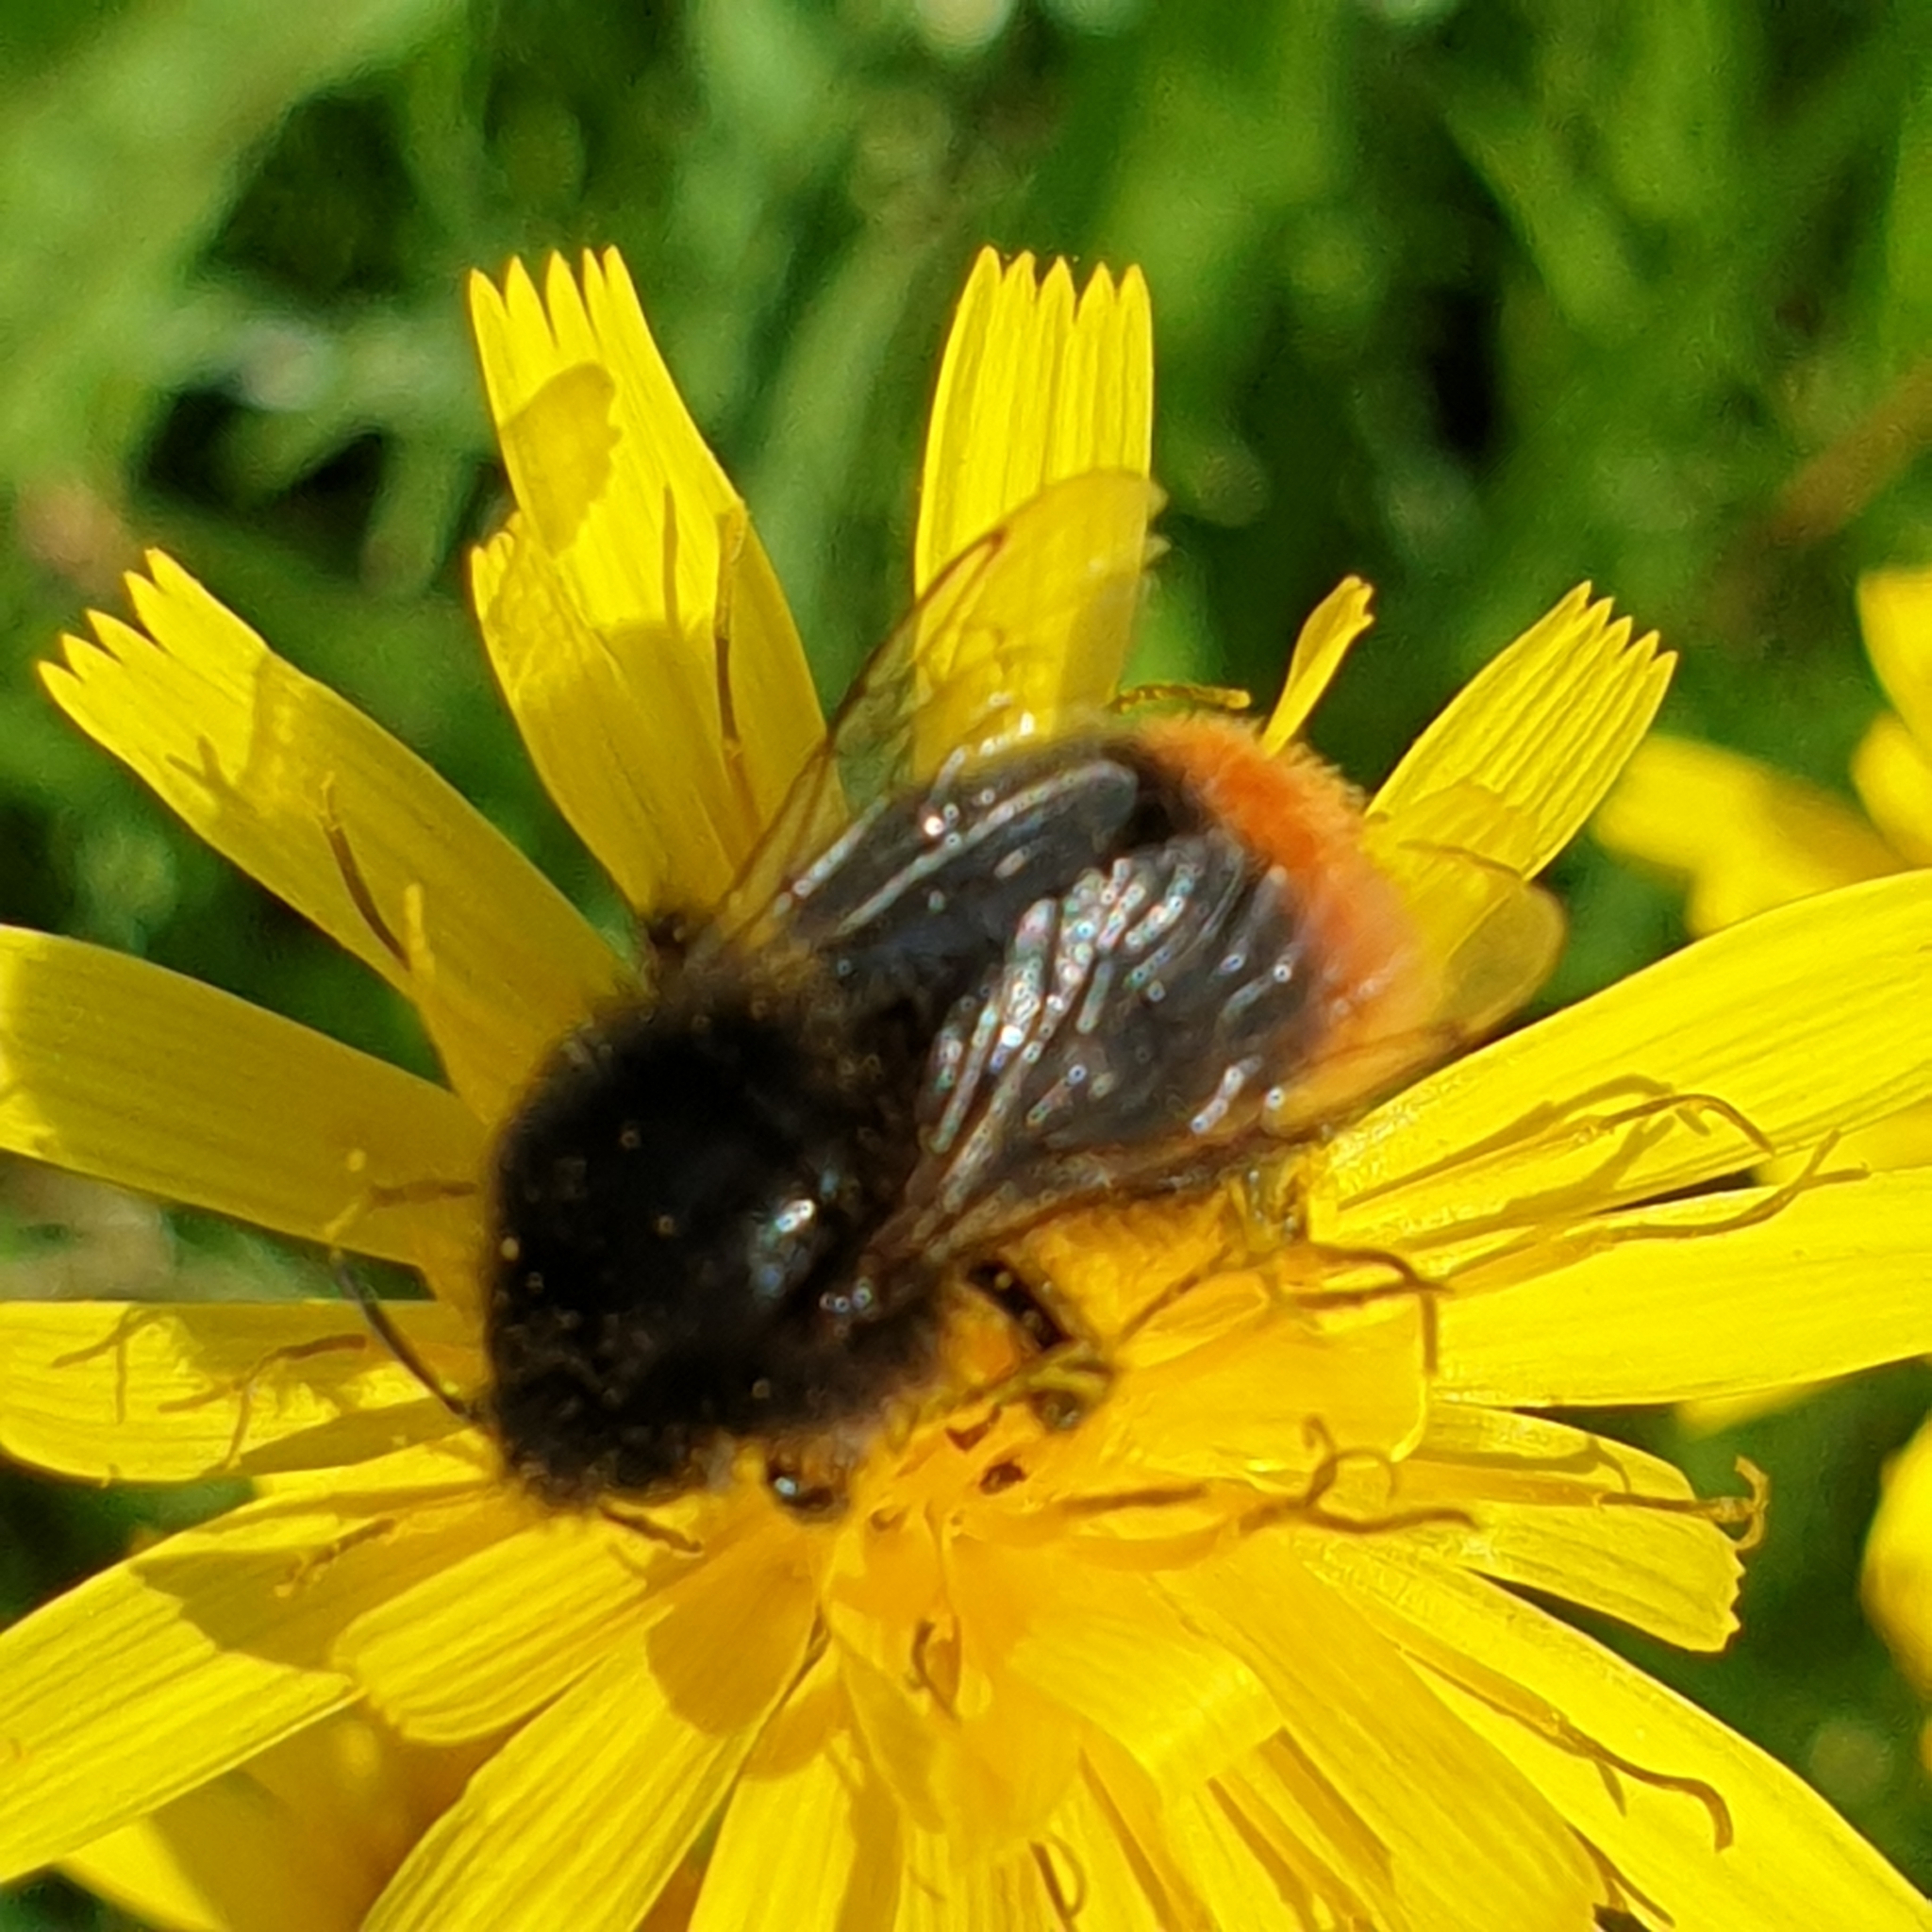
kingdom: Animalia
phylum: Arthropoda
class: Insecta
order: Hymenoptera
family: Apidae
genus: Bombus
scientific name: Bombus lapidarius
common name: Large red-tailed humble-bee
